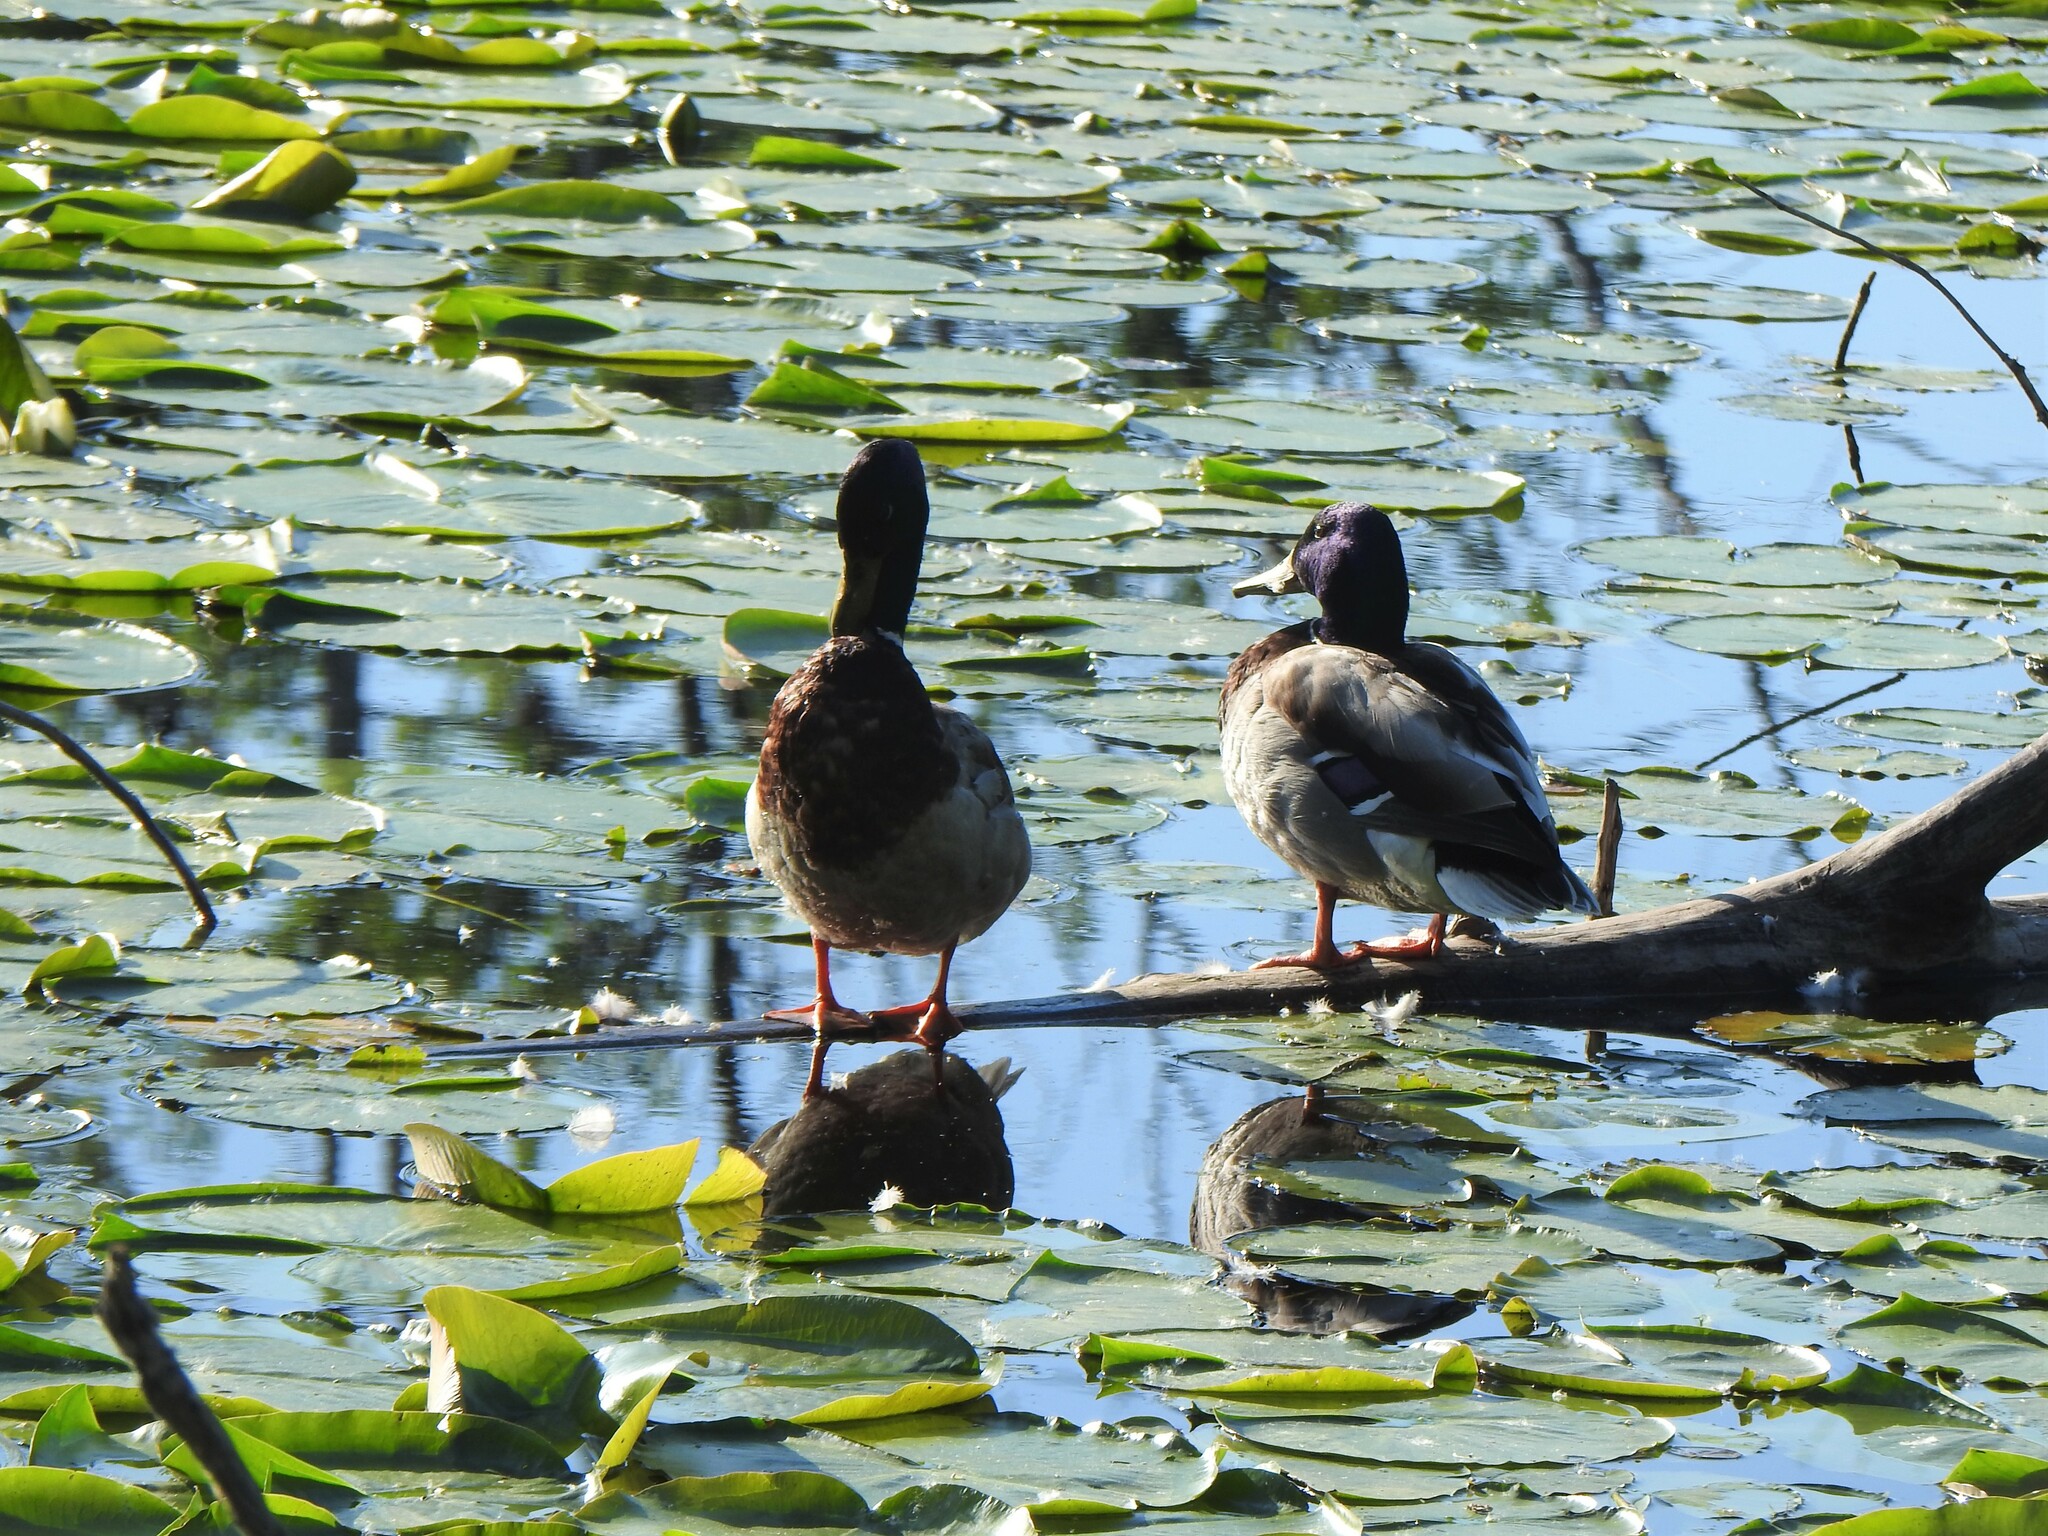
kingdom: Animalia
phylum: Chordata
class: Aves
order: Anseriformes
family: Anatidae
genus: Anas
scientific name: Anas platyrhynchos
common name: Mallard
